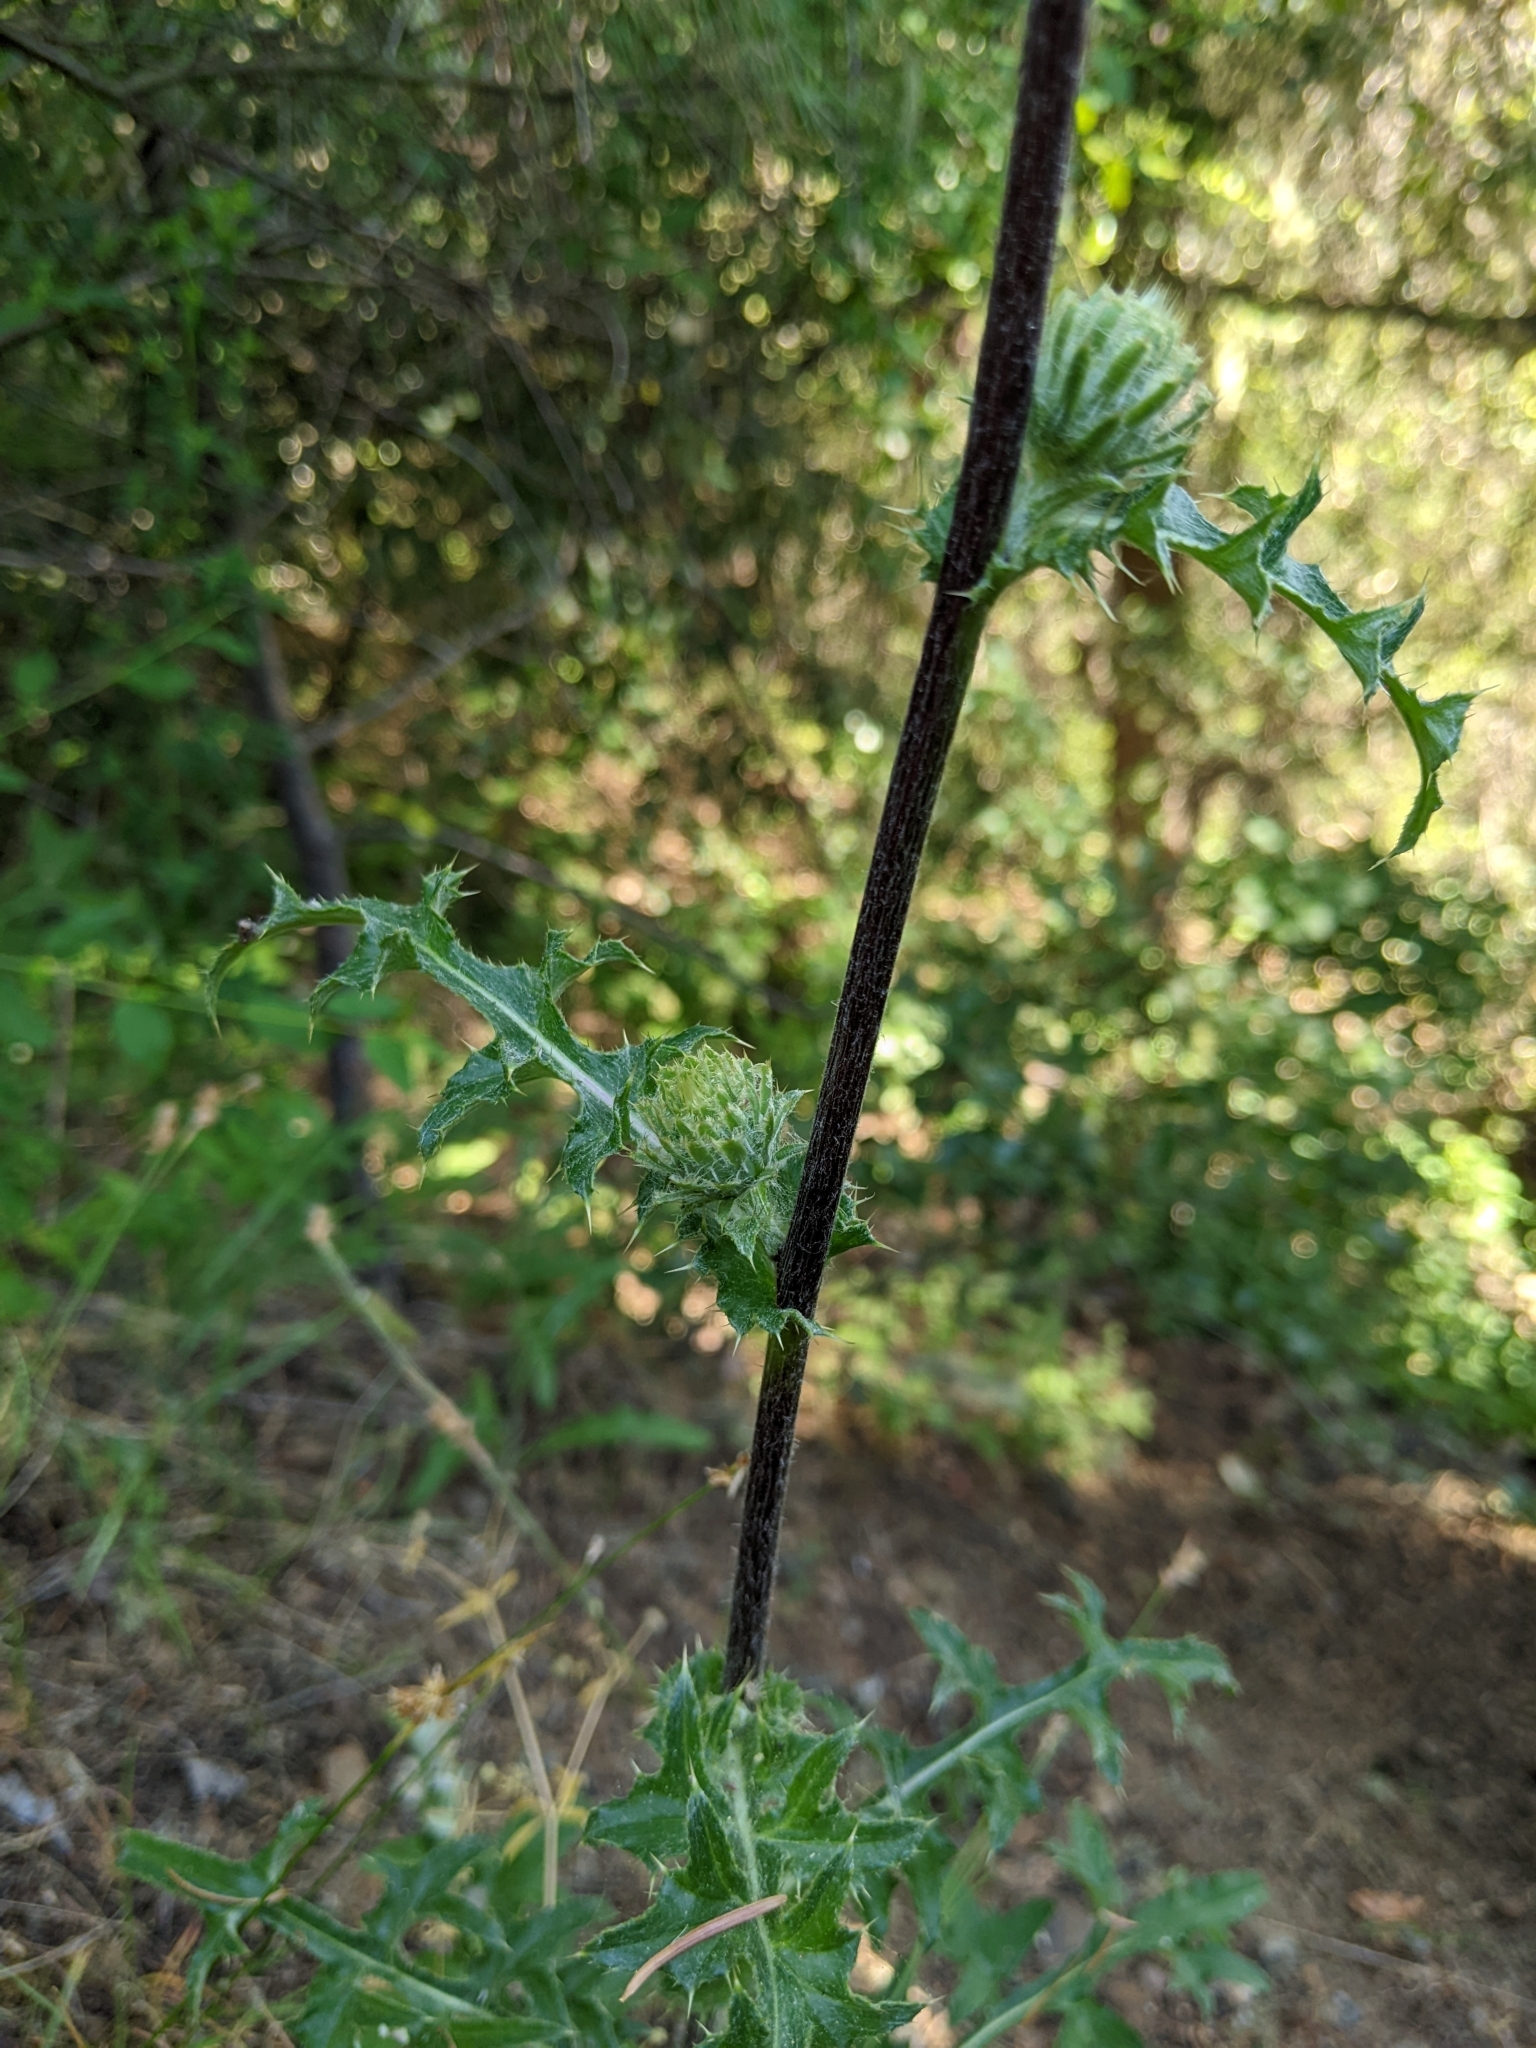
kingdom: Plantae
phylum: Tracheophyta
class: Magnoliopsida
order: Asterales
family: Asteraceae
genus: Cirsium
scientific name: Cirsium cymosum
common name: Peregrine thistle
